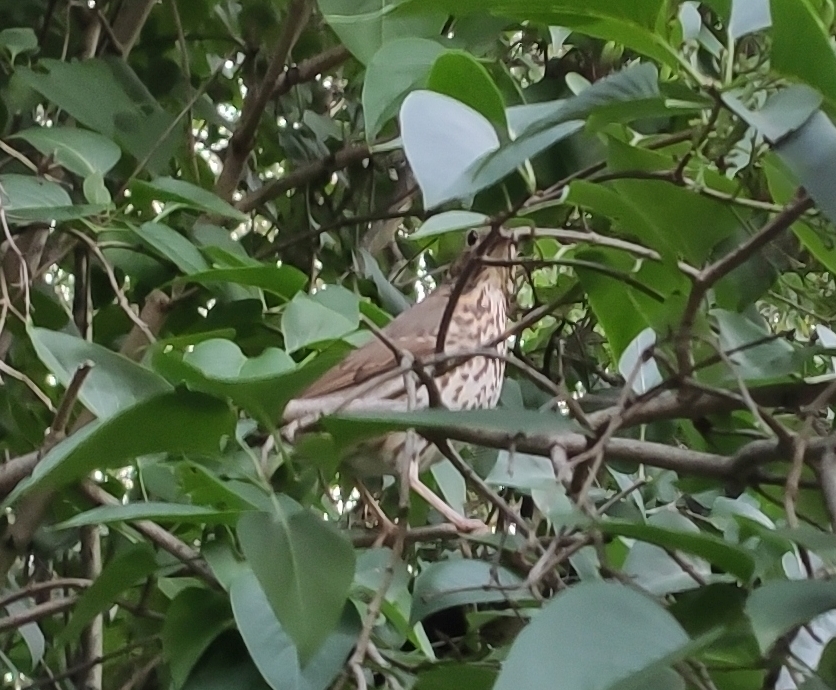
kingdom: Animalia
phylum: Chordata
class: Aves
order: Passeriformes
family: Turdidae
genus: Turdus
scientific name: Turdus philomelos
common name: Song thrush
